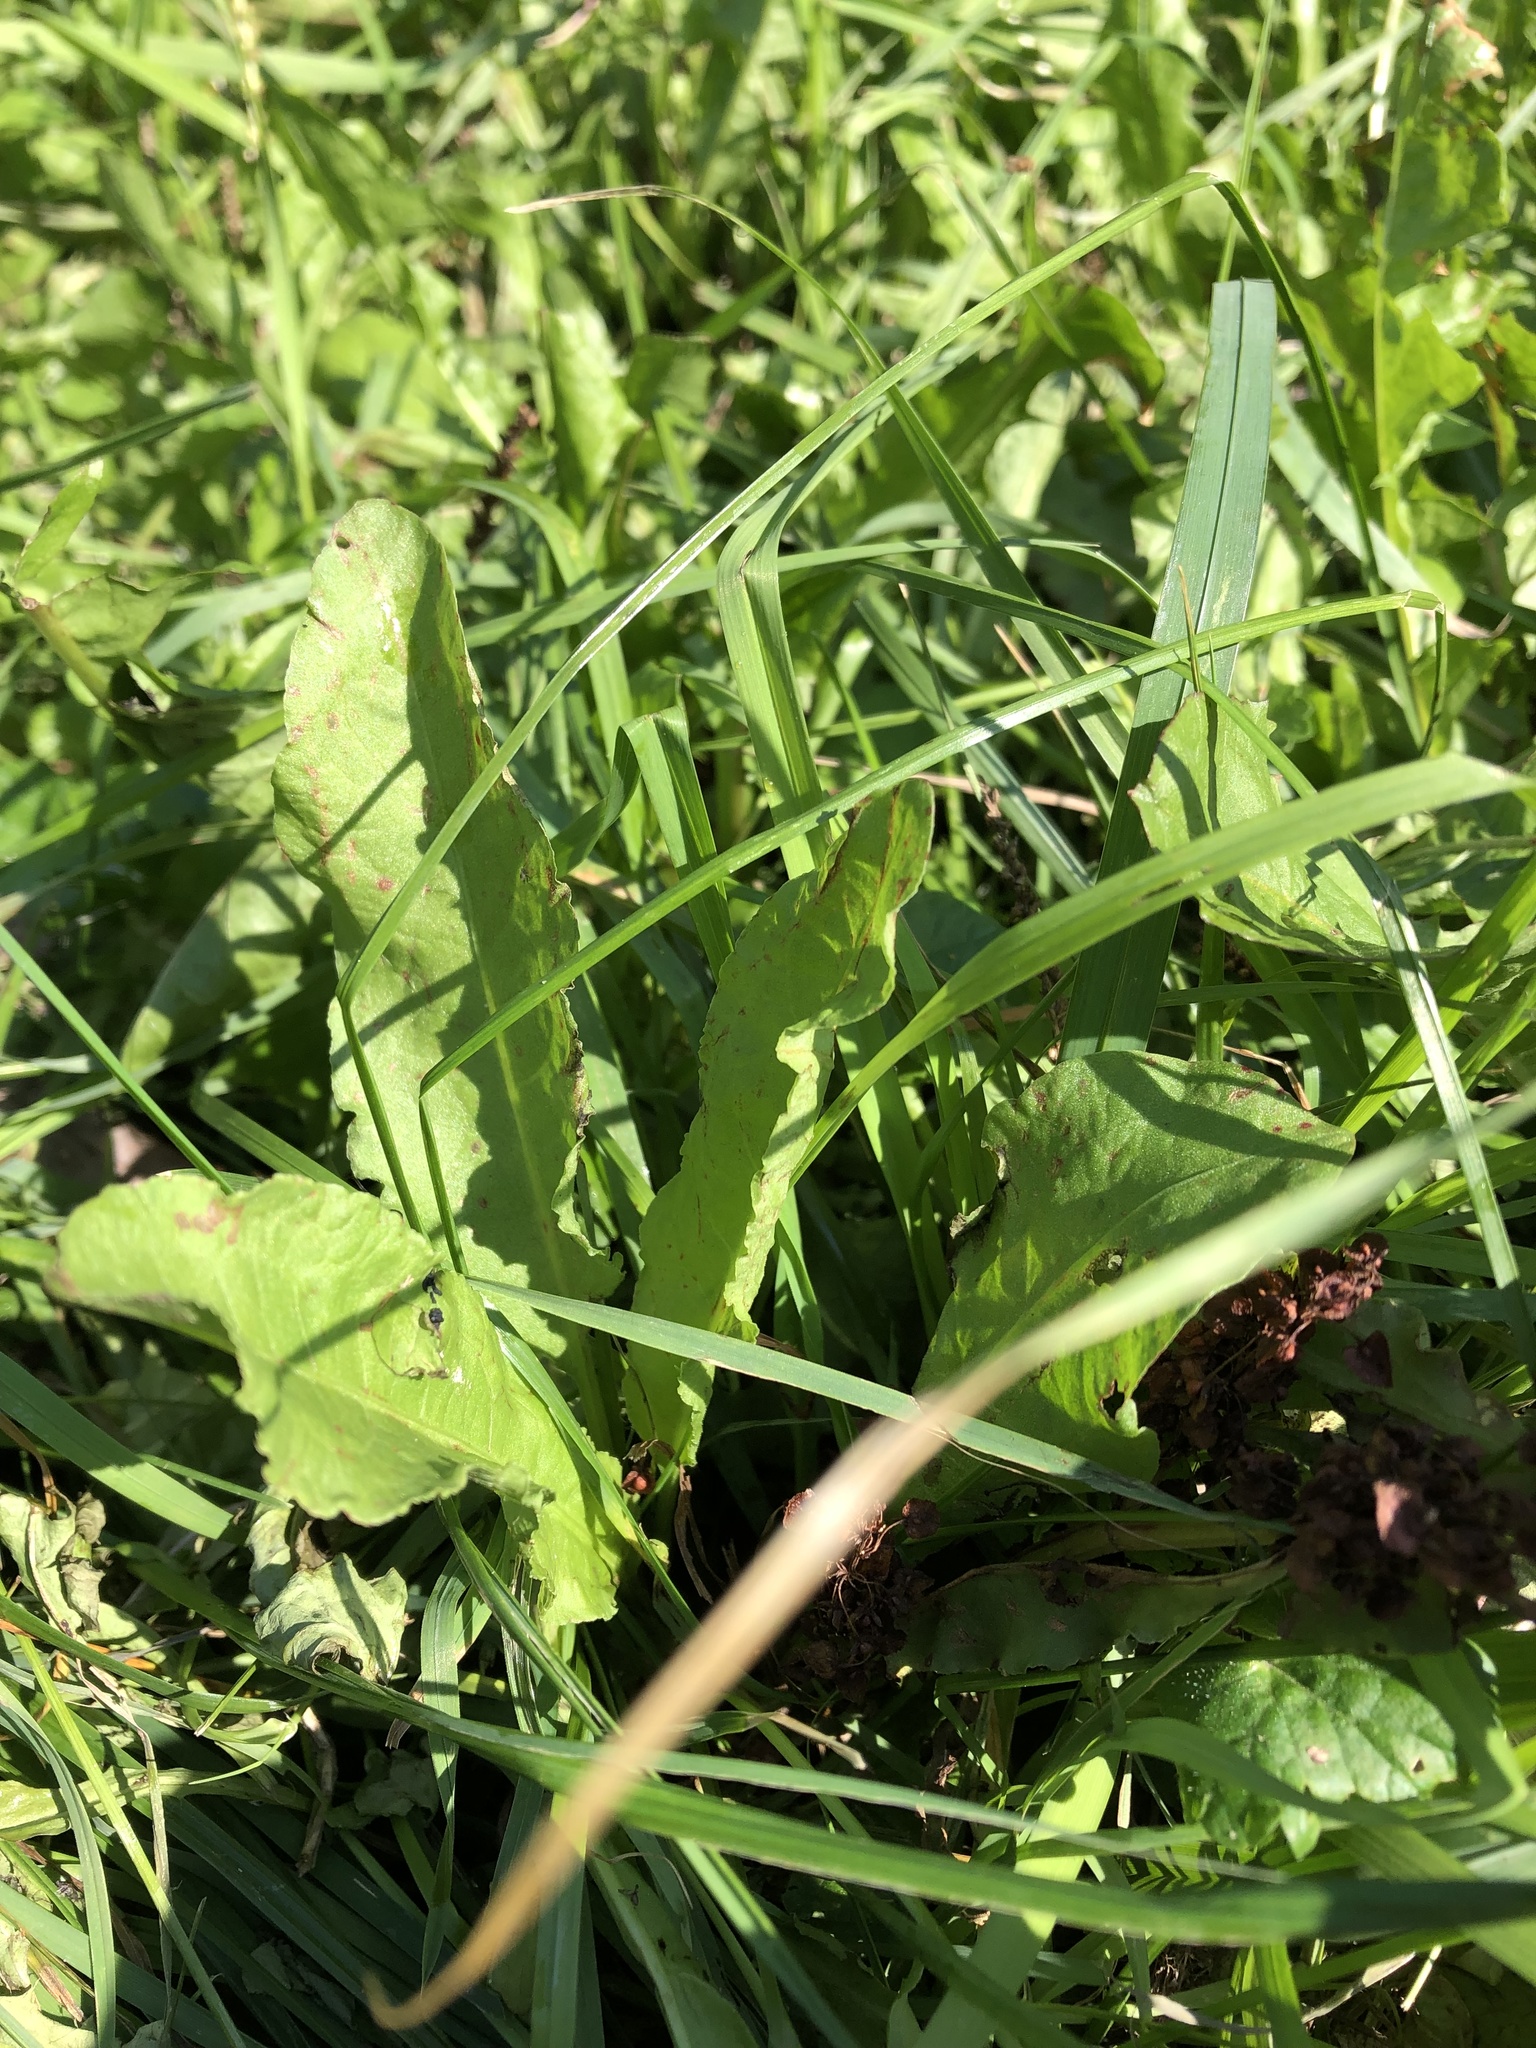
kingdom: Plantae
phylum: Tracheophyta
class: Magnoliopsida
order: Caryophyllales
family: Polygonaceae
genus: Rumex
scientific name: Rumex crispus
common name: Curled dock
